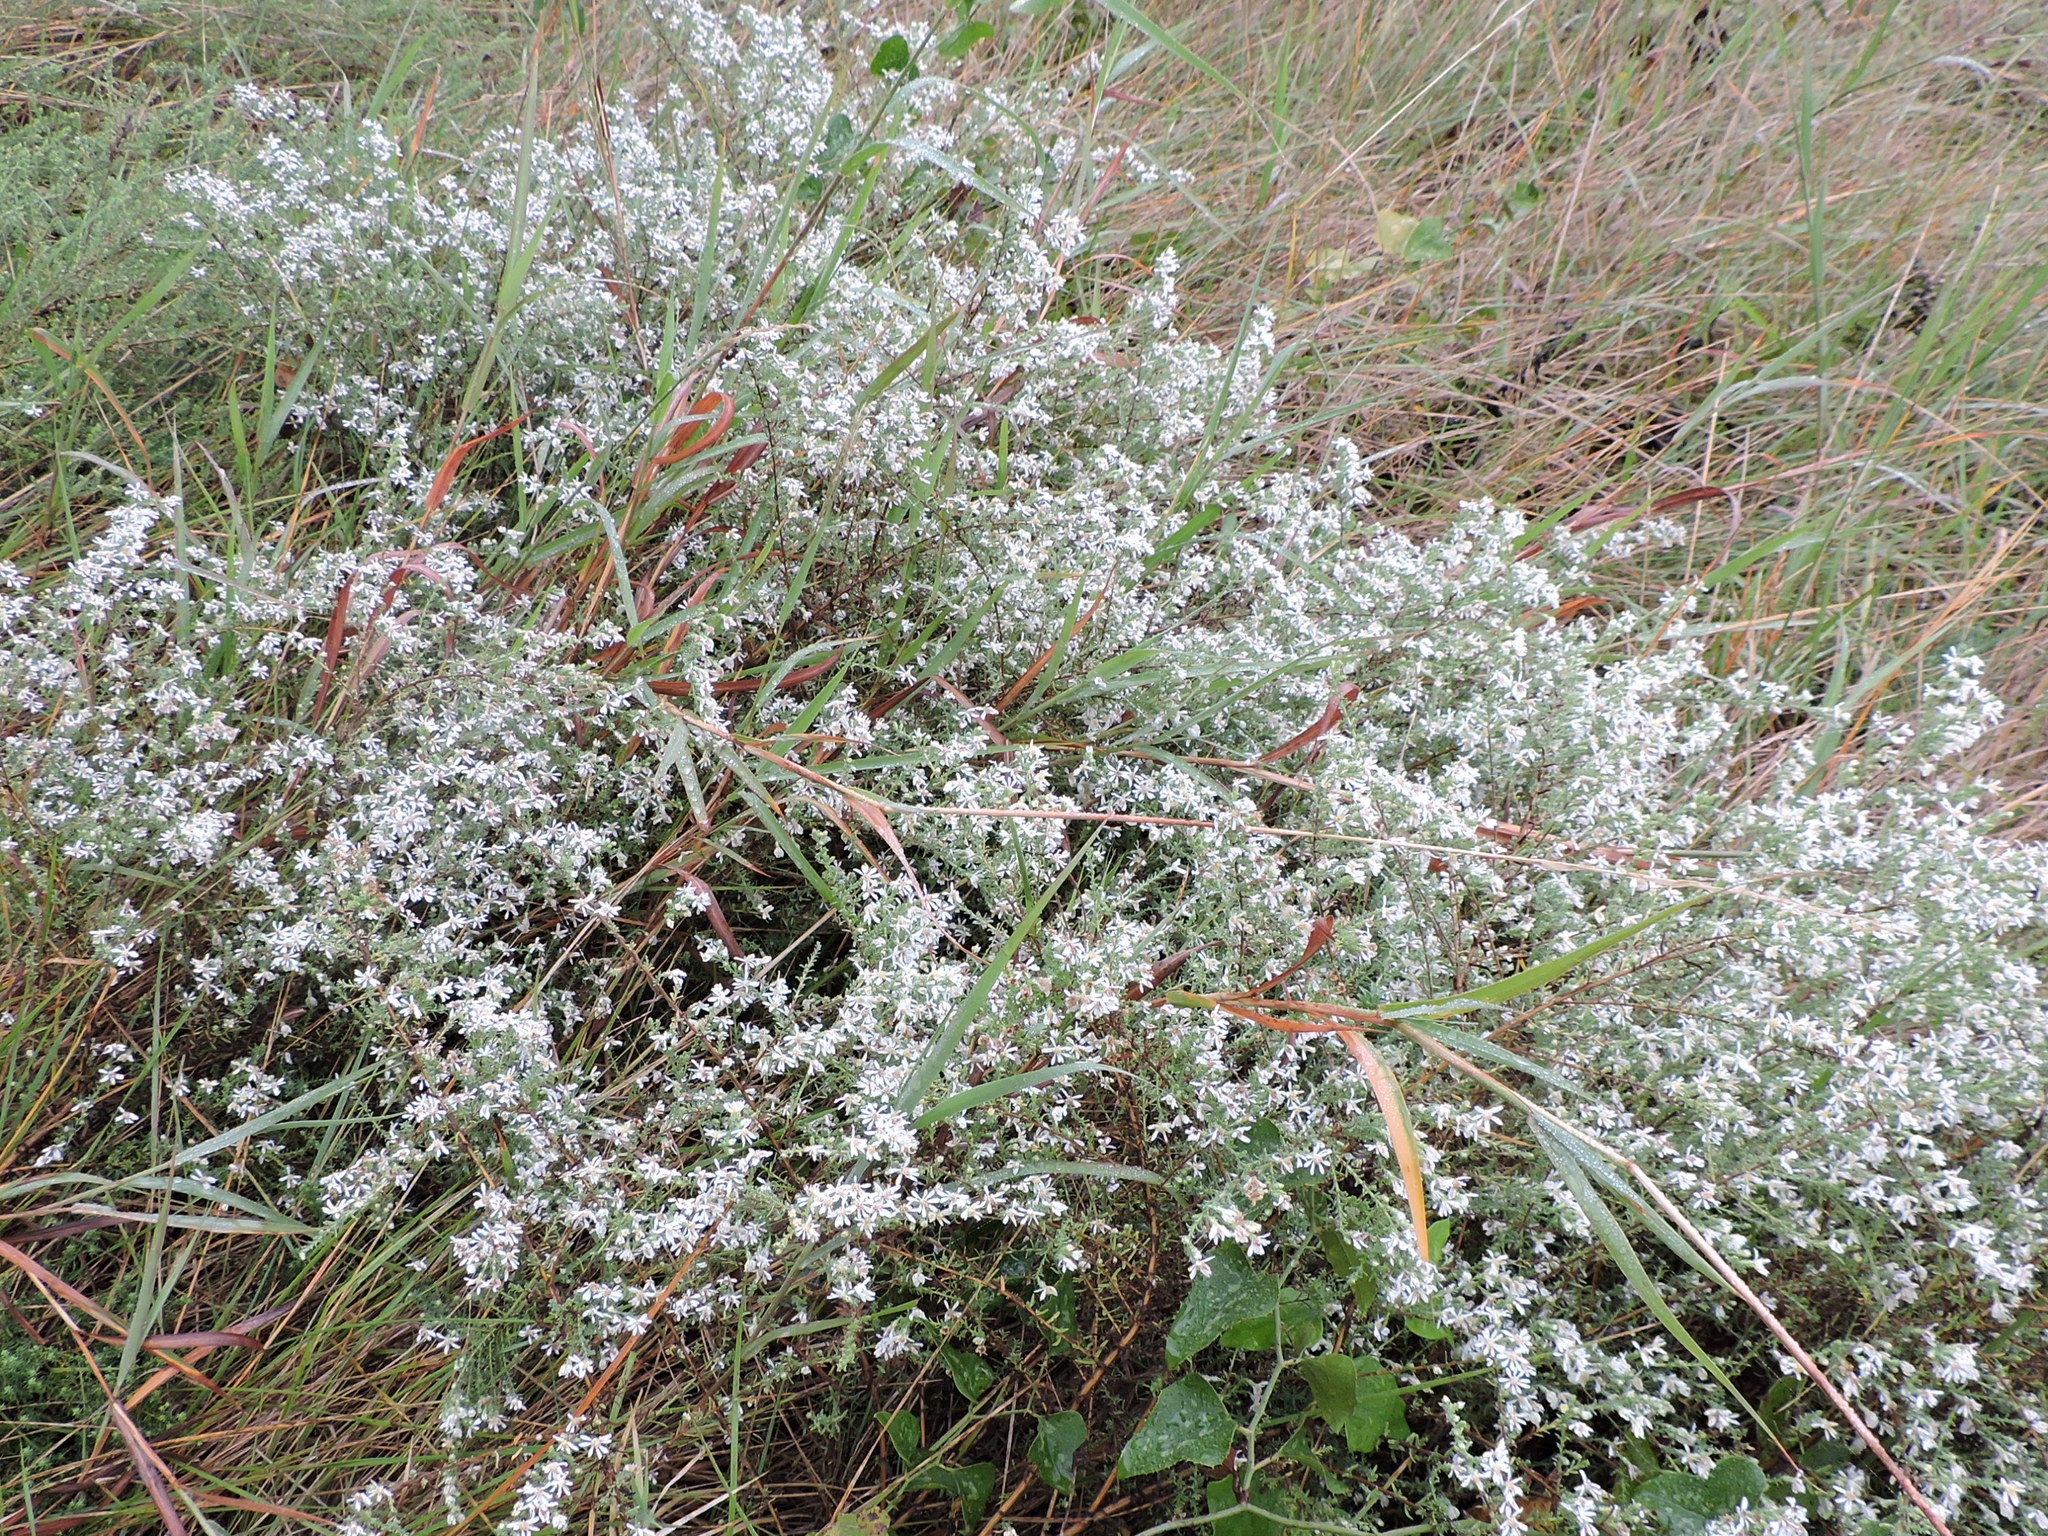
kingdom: Plantae
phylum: Tracheophyta
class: Magnoliopsida
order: Asterales
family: Asteraceae
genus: Symphyotrichum
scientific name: Symphyotrichum ericoides
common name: Heath aster
